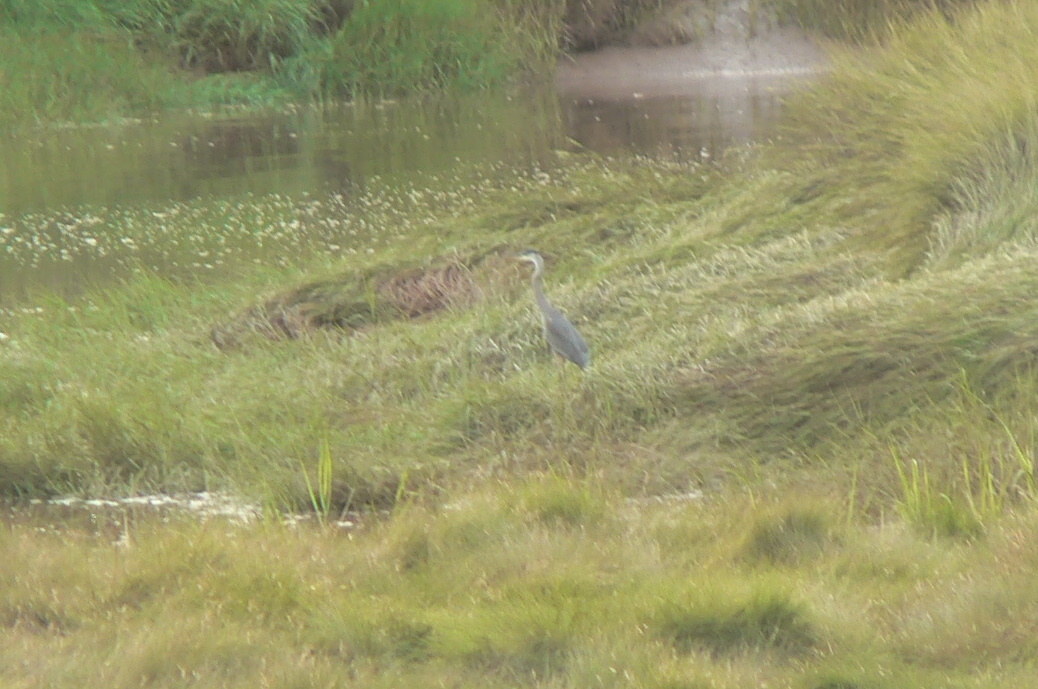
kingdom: Animalia
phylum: Chordata
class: Aves
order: Pelecaniformes
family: Ardeidae
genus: Ardea
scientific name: Ardea herodias
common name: Great blue heron
